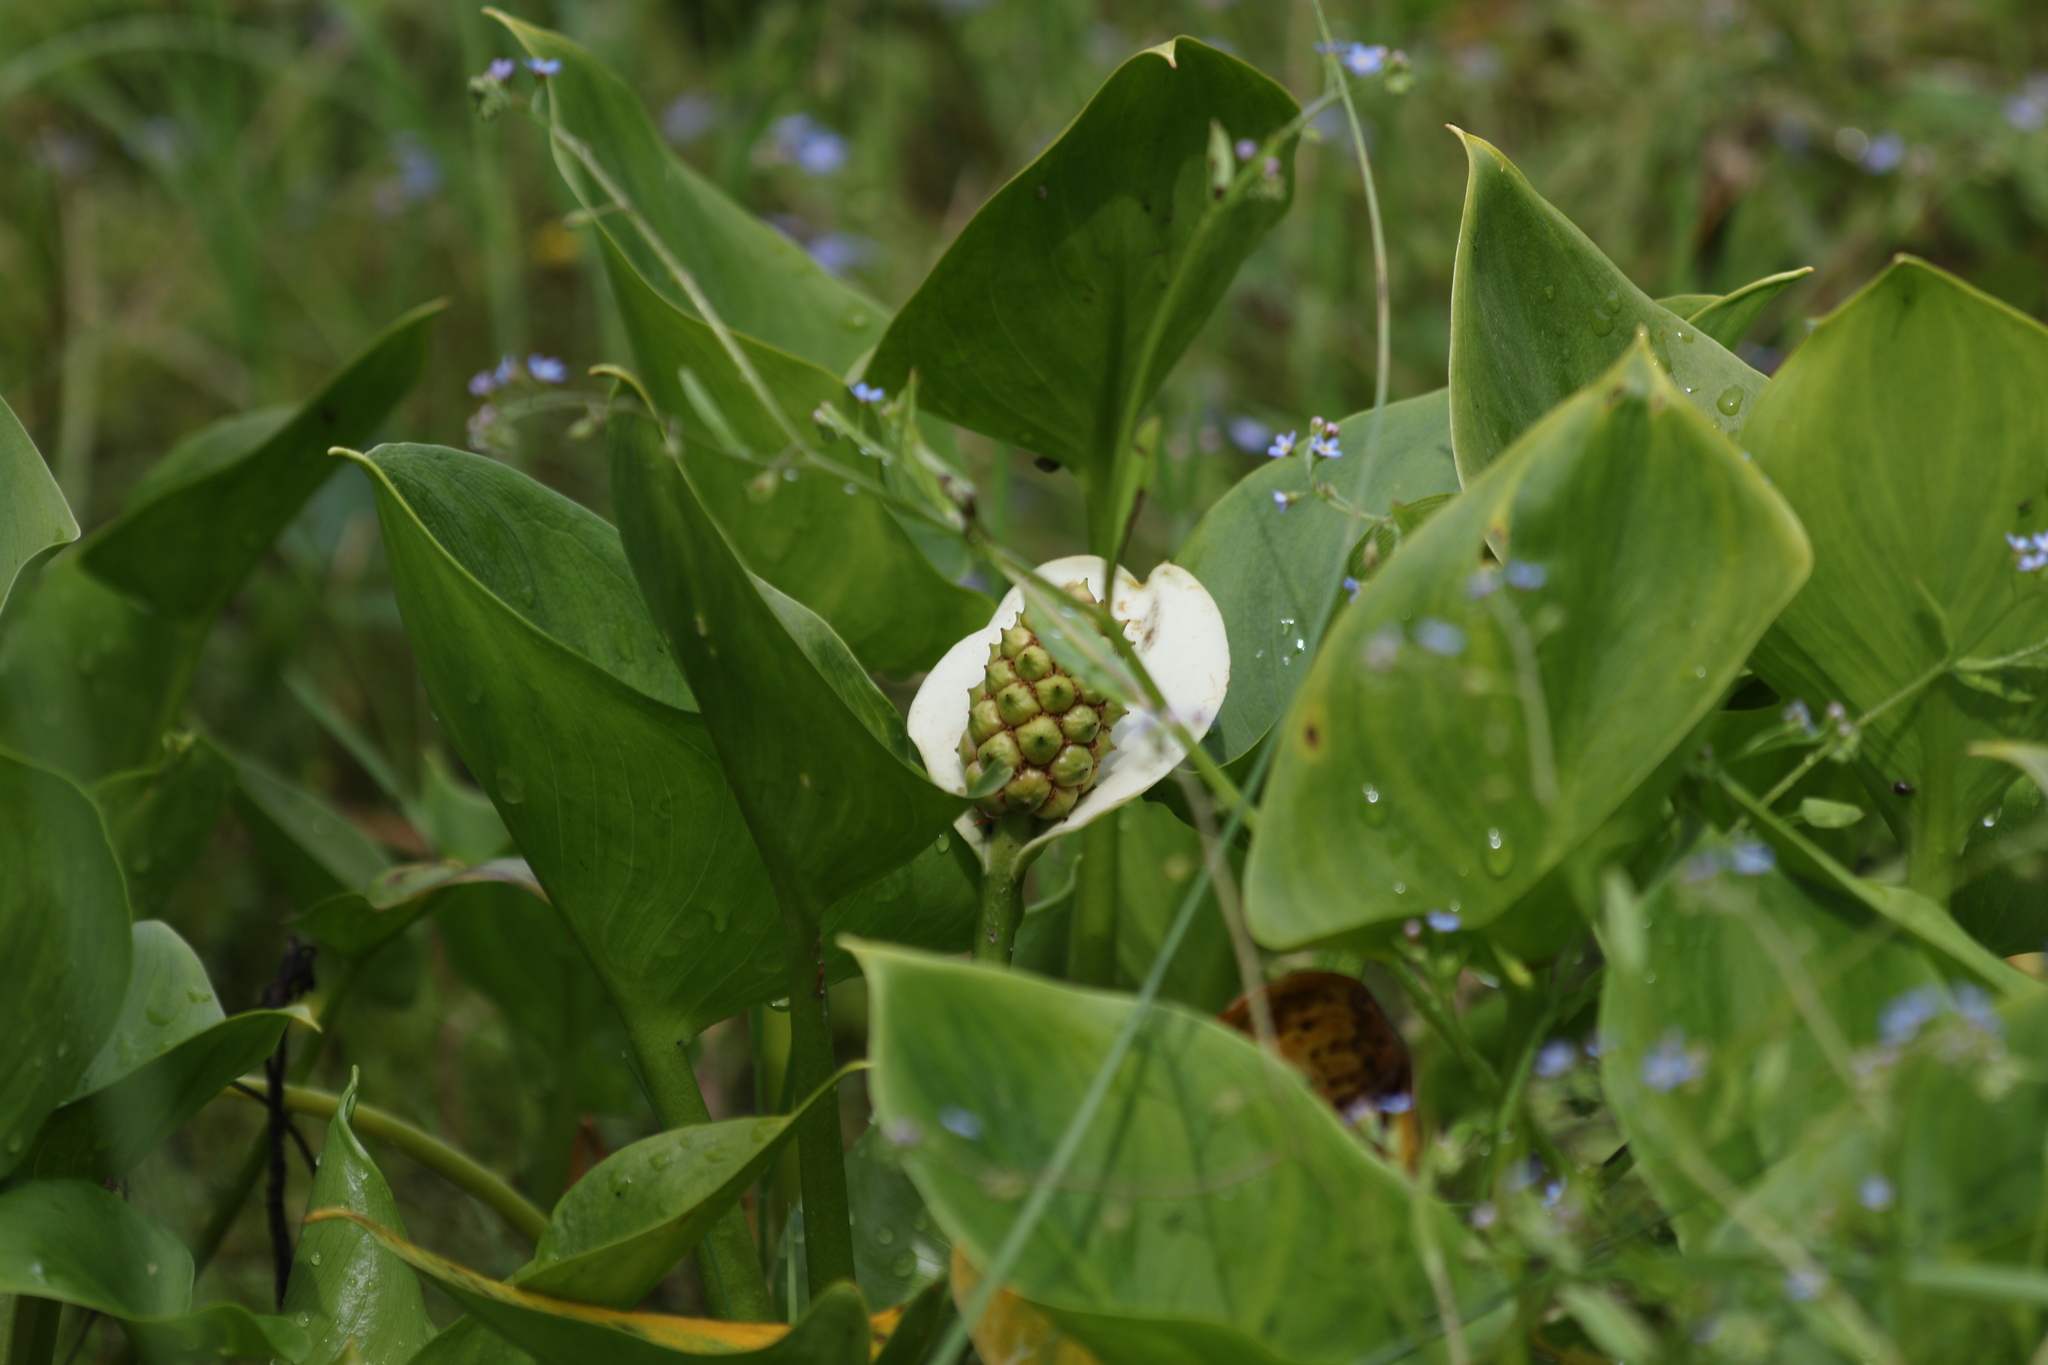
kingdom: Plantae
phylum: Tracheophyta
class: Liliopsida
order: Alismatales
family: Araceae
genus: Calla
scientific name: Calla palustris
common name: Bog arum
